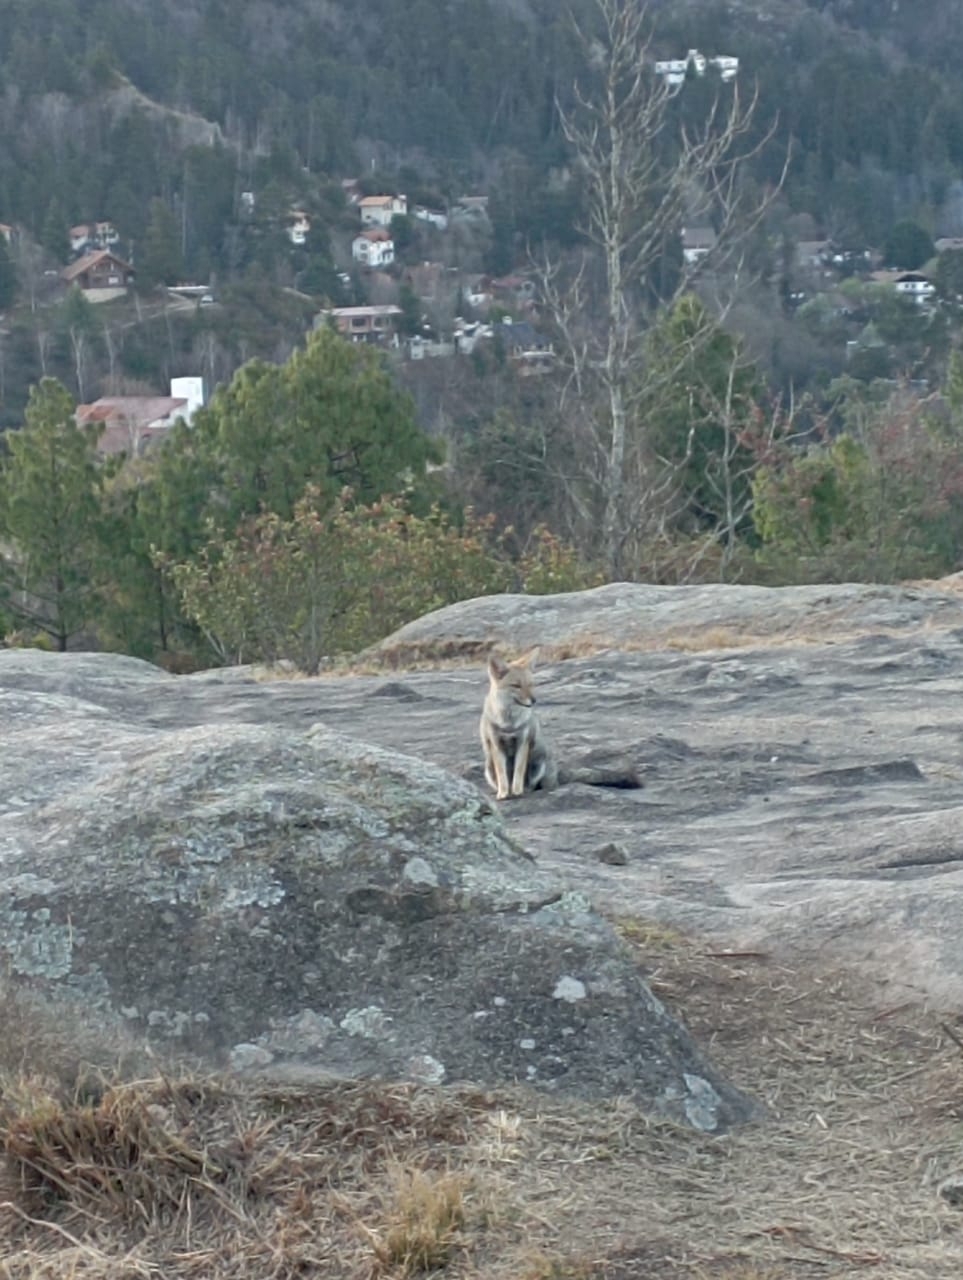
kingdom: Animalia
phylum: Chordata
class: Mammalia
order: Carnivora
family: Canidae
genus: Lycalopex
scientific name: Lycalopex gymnocercus
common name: Pampas fox
